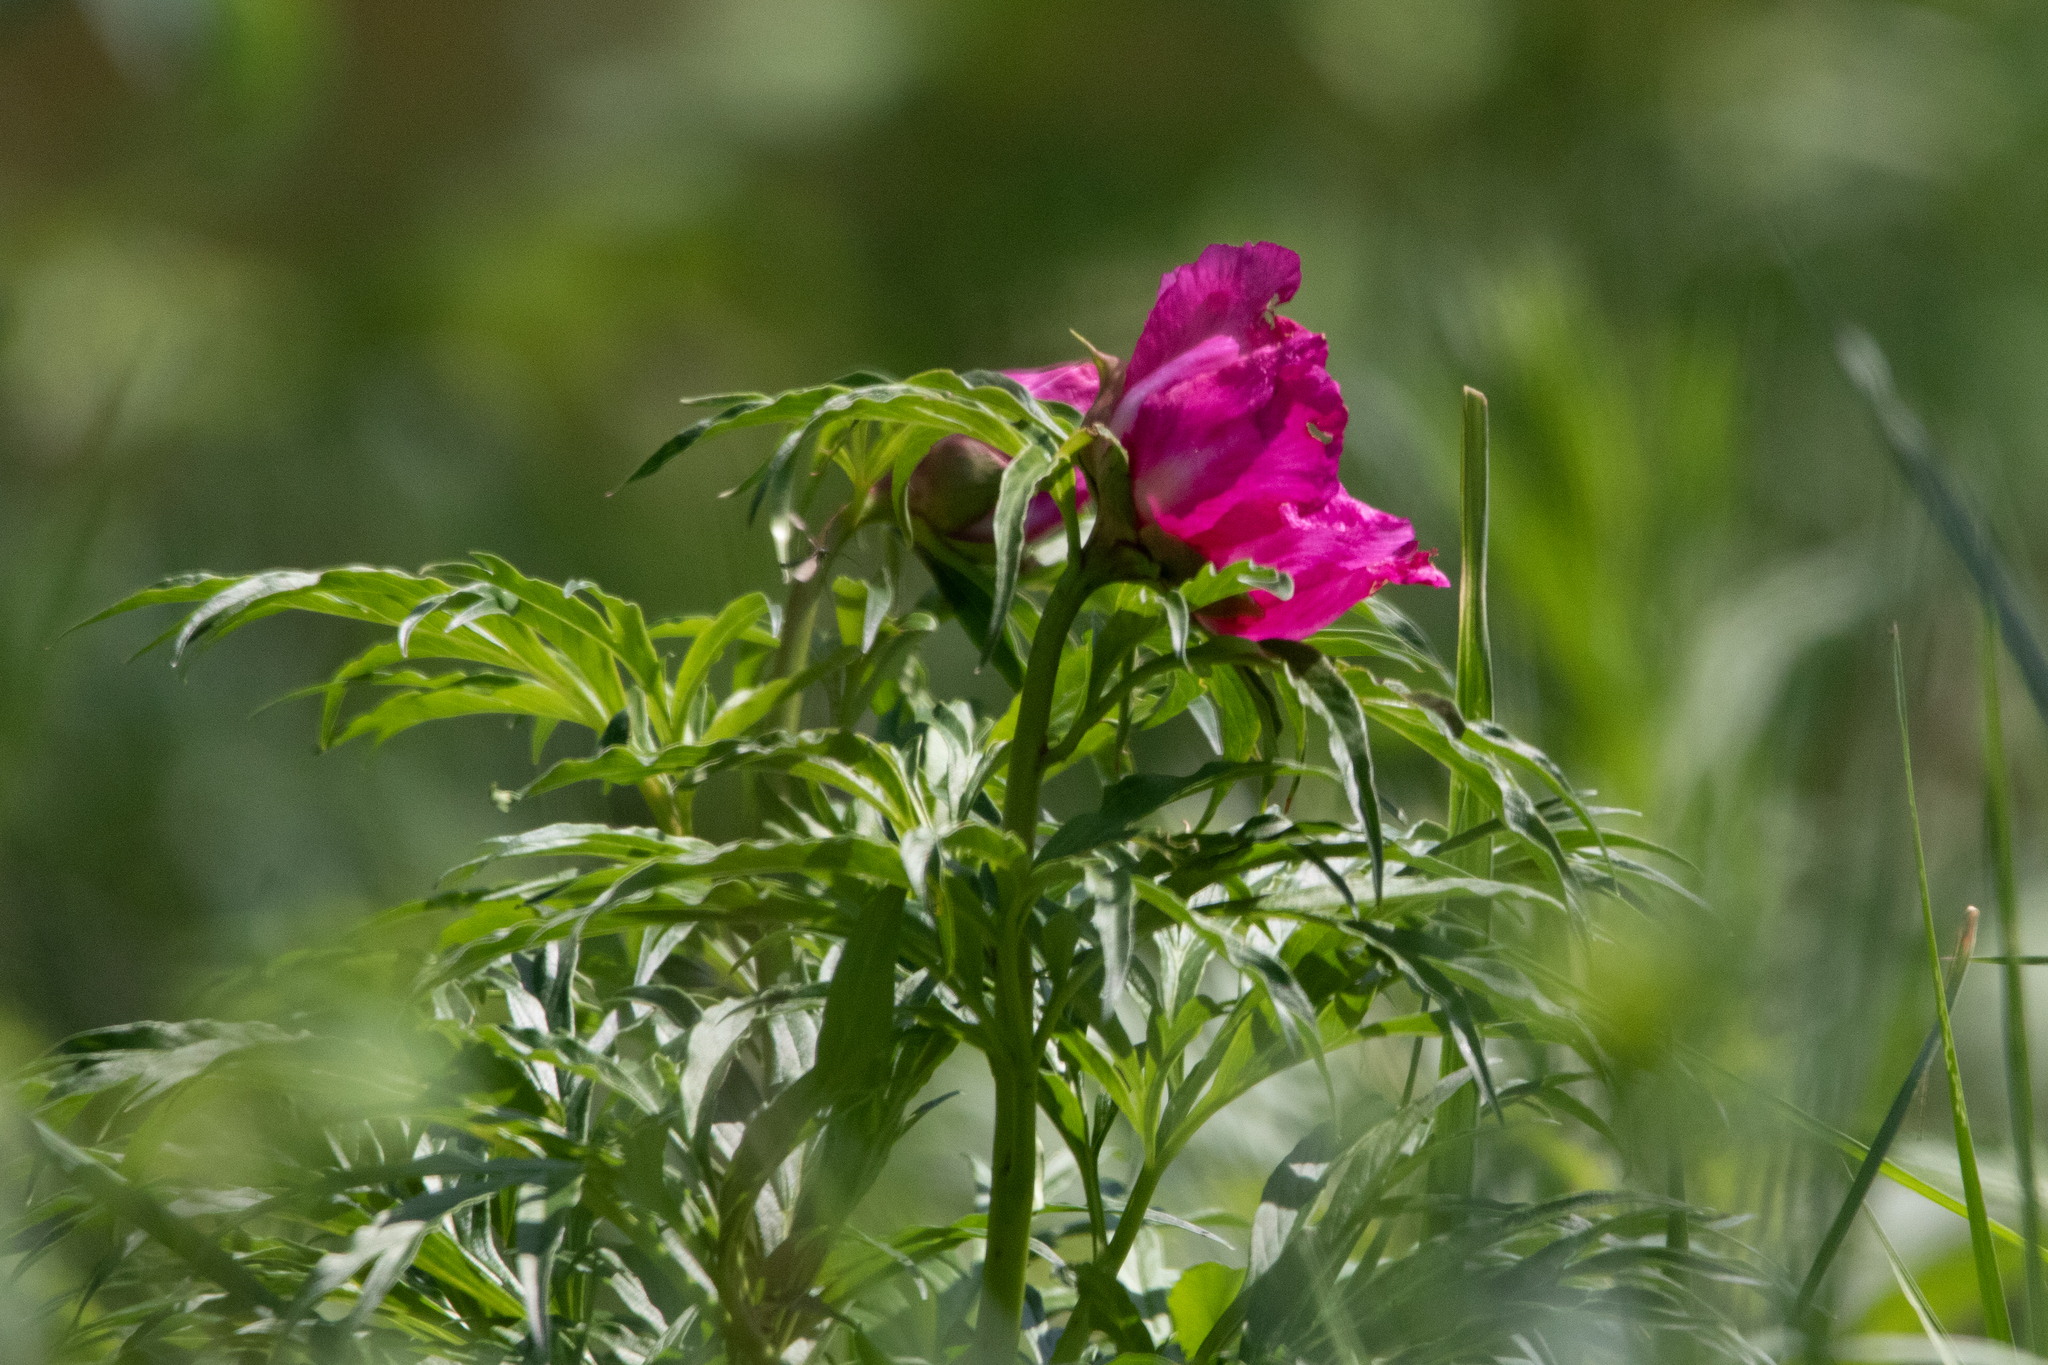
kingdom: Plantae
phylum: Tracheophyta
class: Magnoliopsida
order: Saxifragales
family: Paeoniaceae
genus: Paeonia
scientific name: Paeonia anomala
